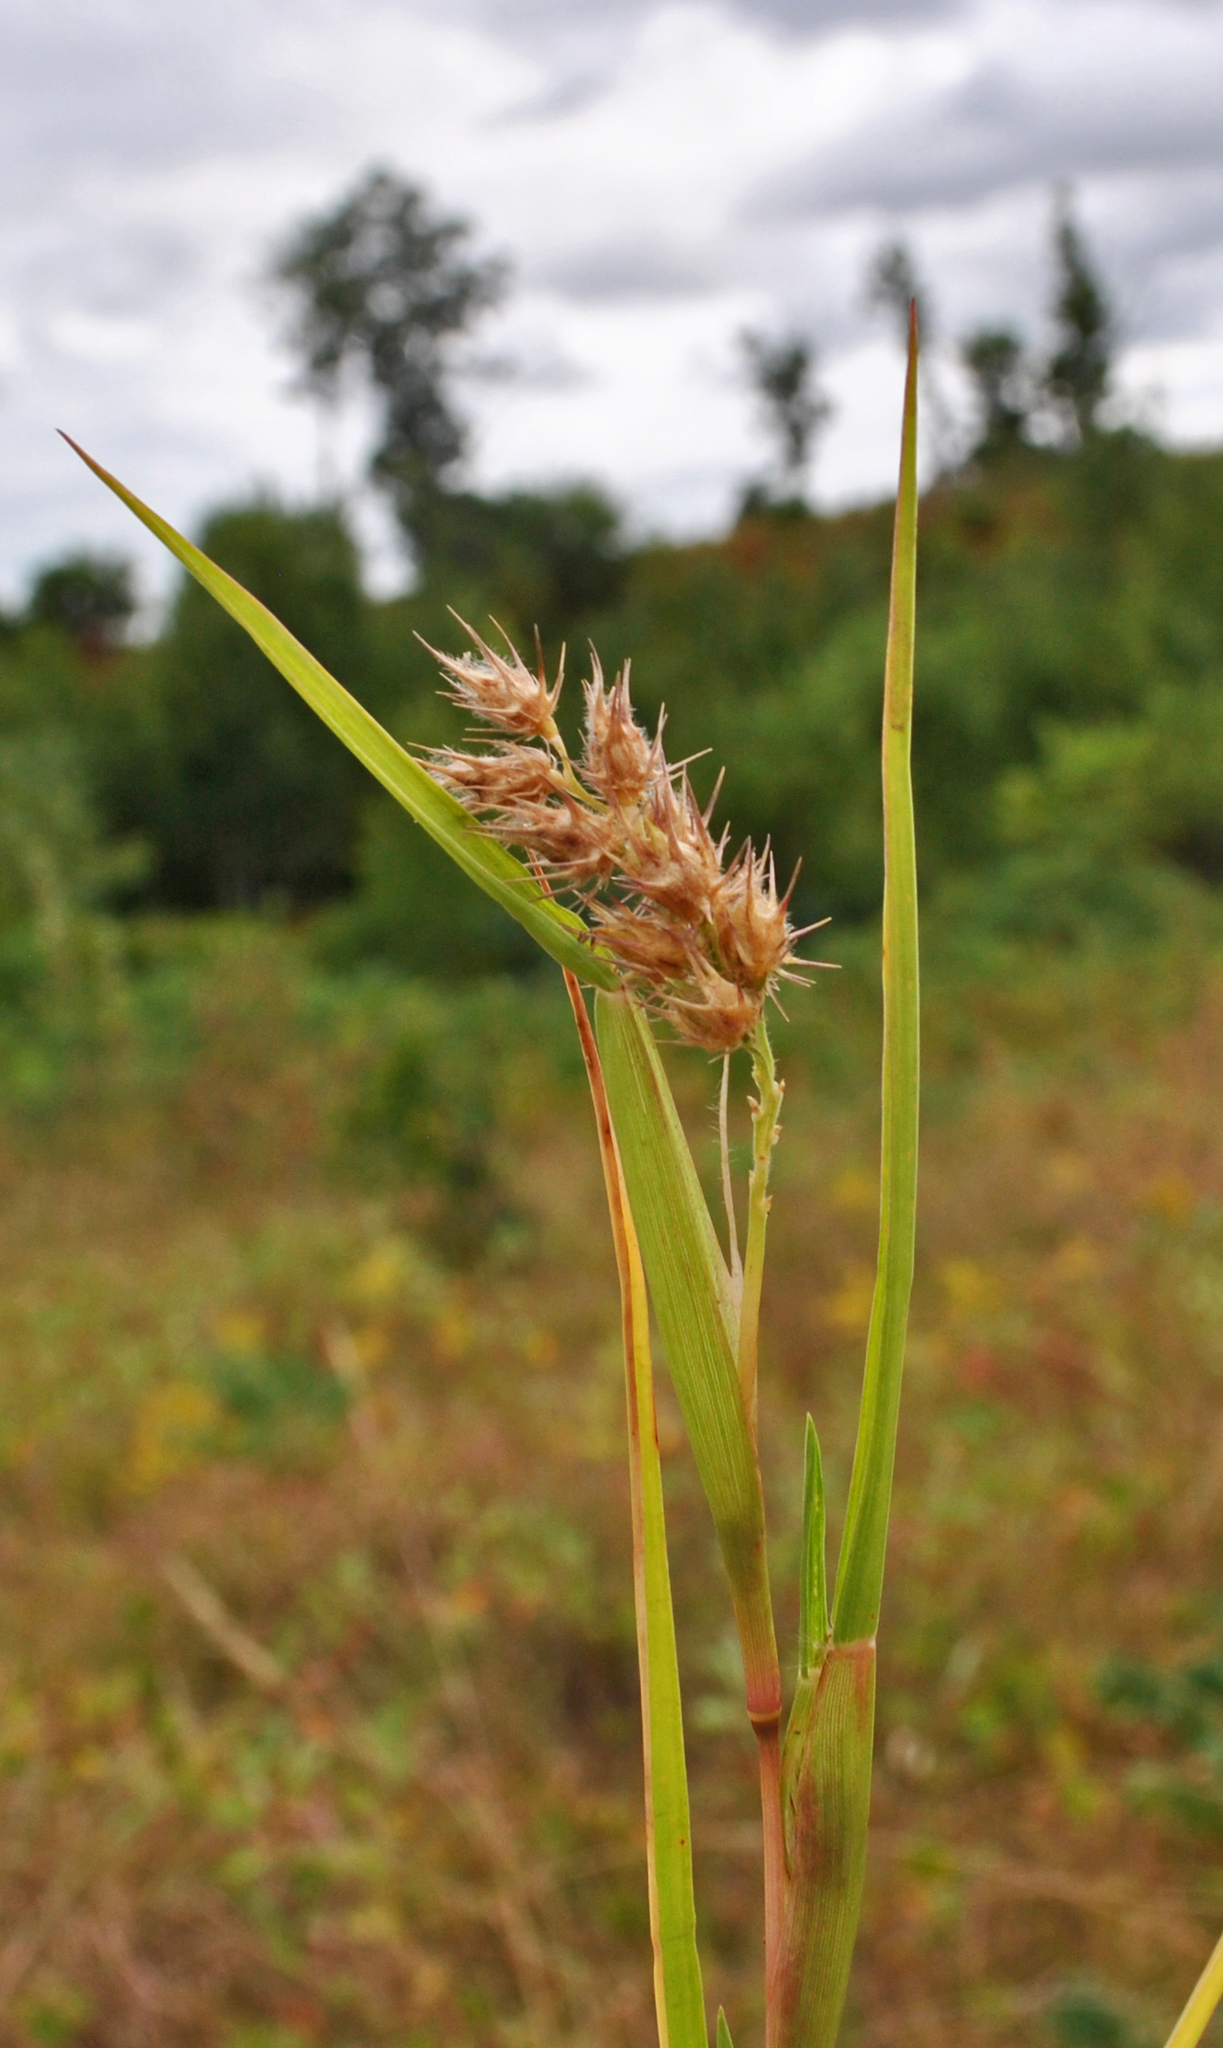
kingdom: Plantae
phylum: Tracheophyta
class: Liliopsida
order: Poales
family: Poaceae
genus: Cenchrus
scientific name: Cenchrus longispinus
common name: Mat sandbur
